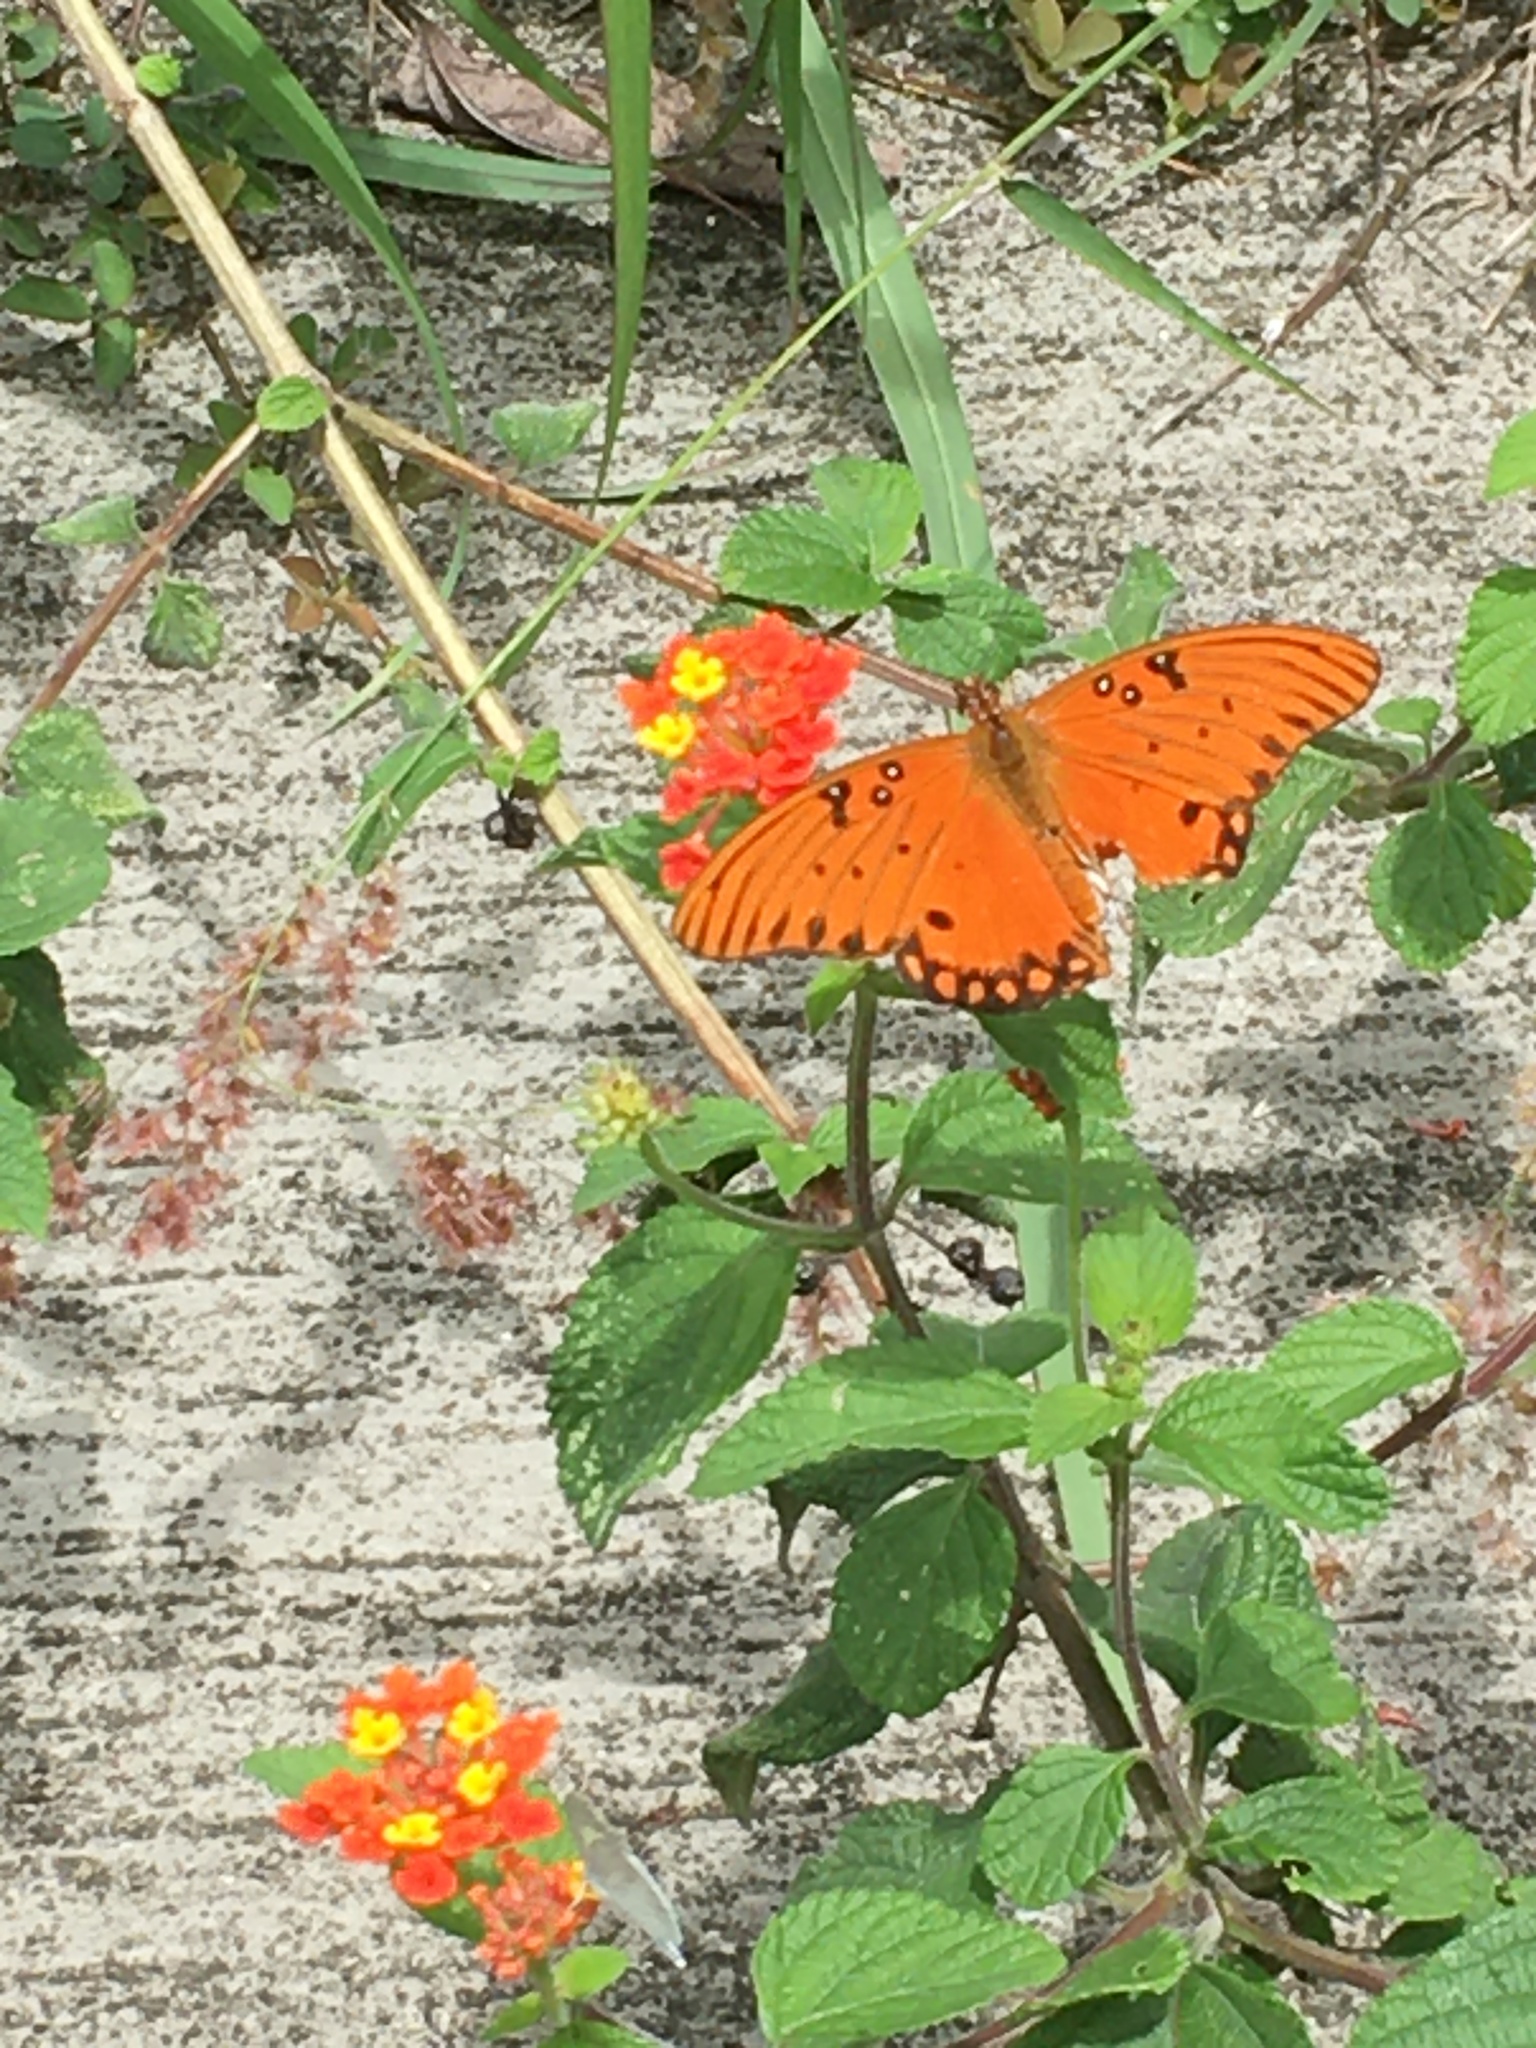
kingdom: Animalia
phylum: Arthropoda
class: Insecta
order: Lepidoptera
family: Nymphalidae
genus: Dione
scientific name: Dione vanillae
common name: Gulf fritillary
